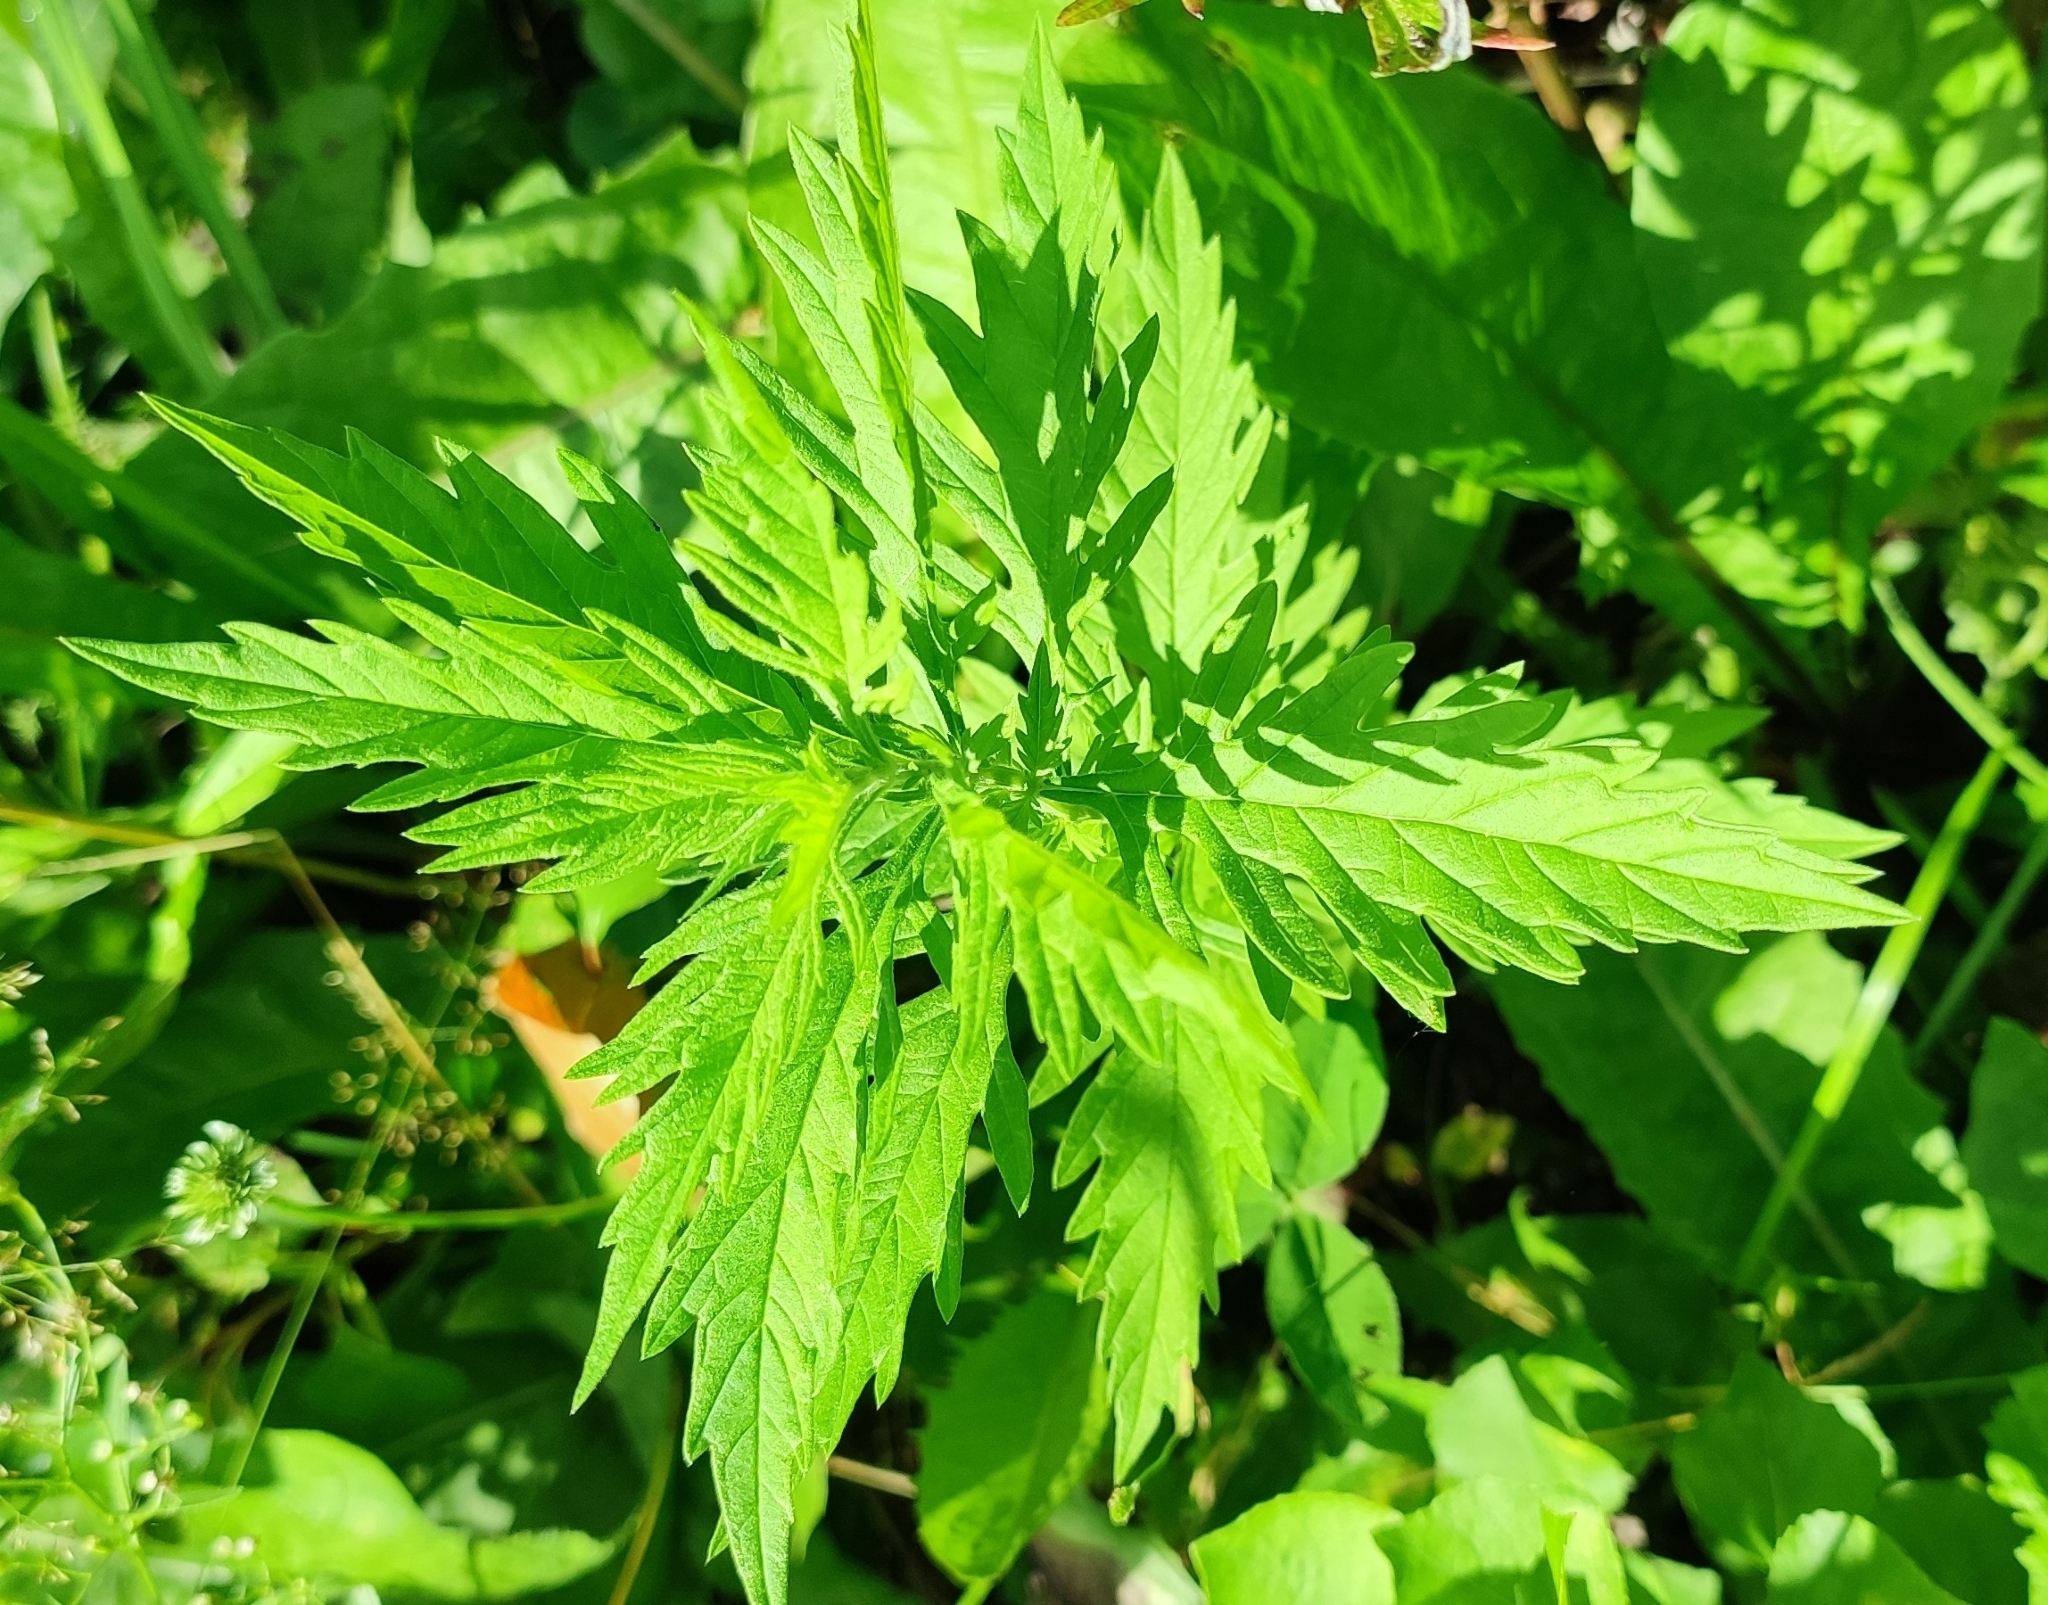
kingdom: Plantae
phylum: Tracheophyta
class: Magnoliopsida
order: Lamiales
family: Lamiaceae
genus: Lycopus
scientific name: Lycopus europaeus
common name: European bugleweed
